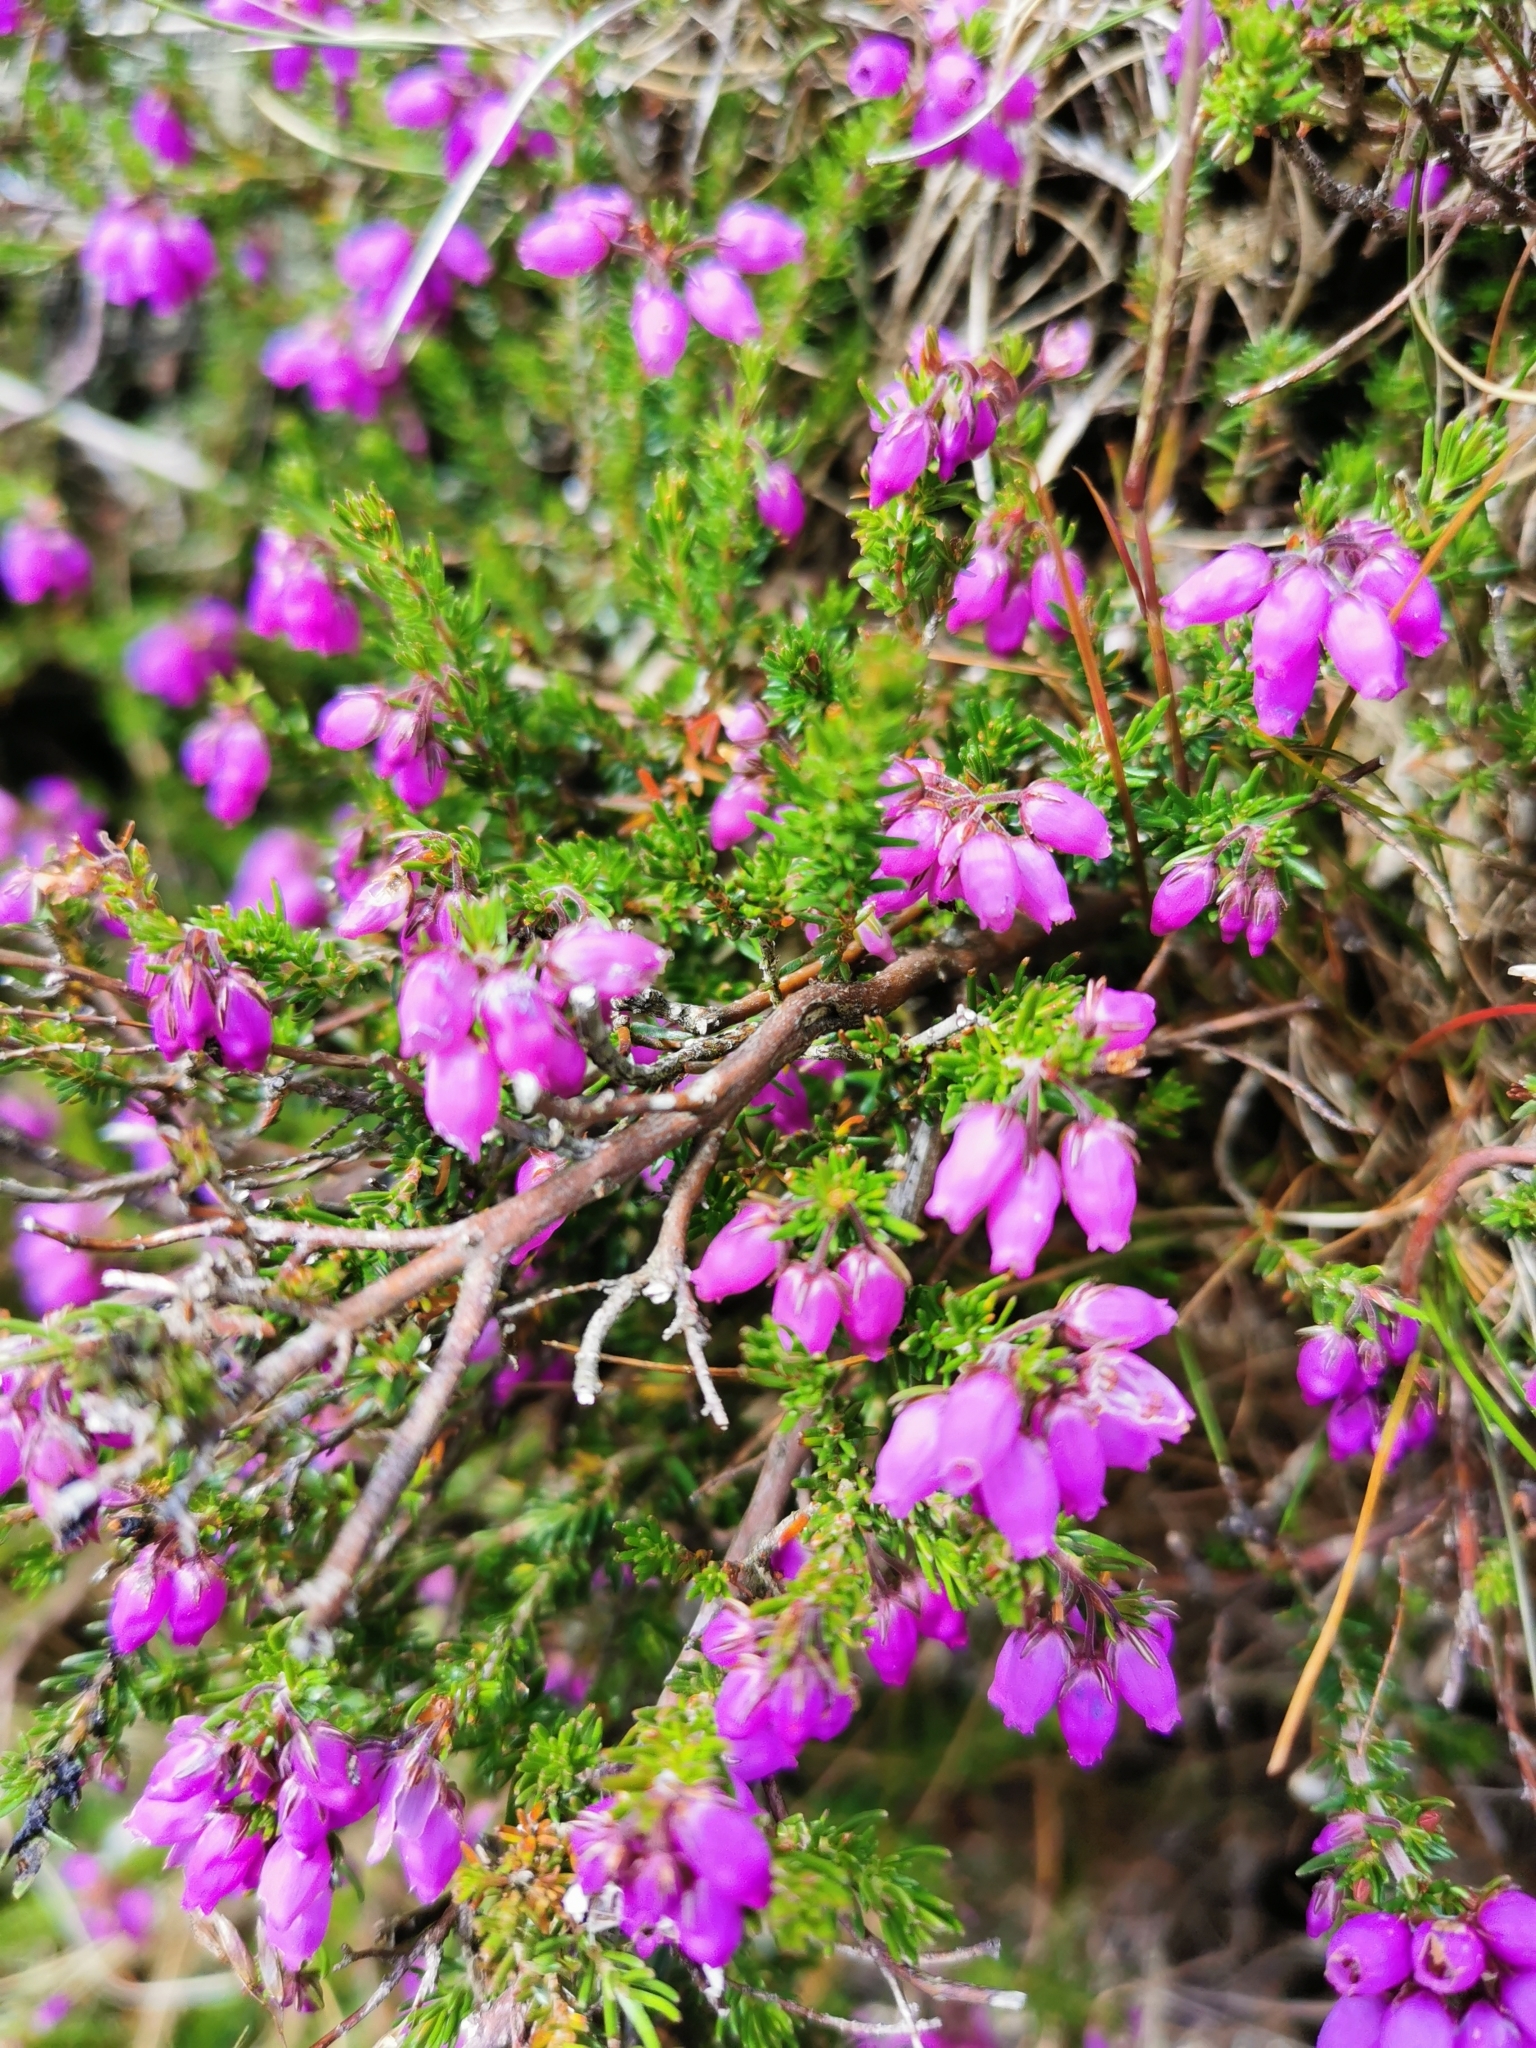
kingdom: Plantae
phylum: Tracheophyta
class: Magnoliopsida
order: Ericales
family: Ericaceae
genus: Erica
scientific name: Erica cinerea
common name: Bell heather
